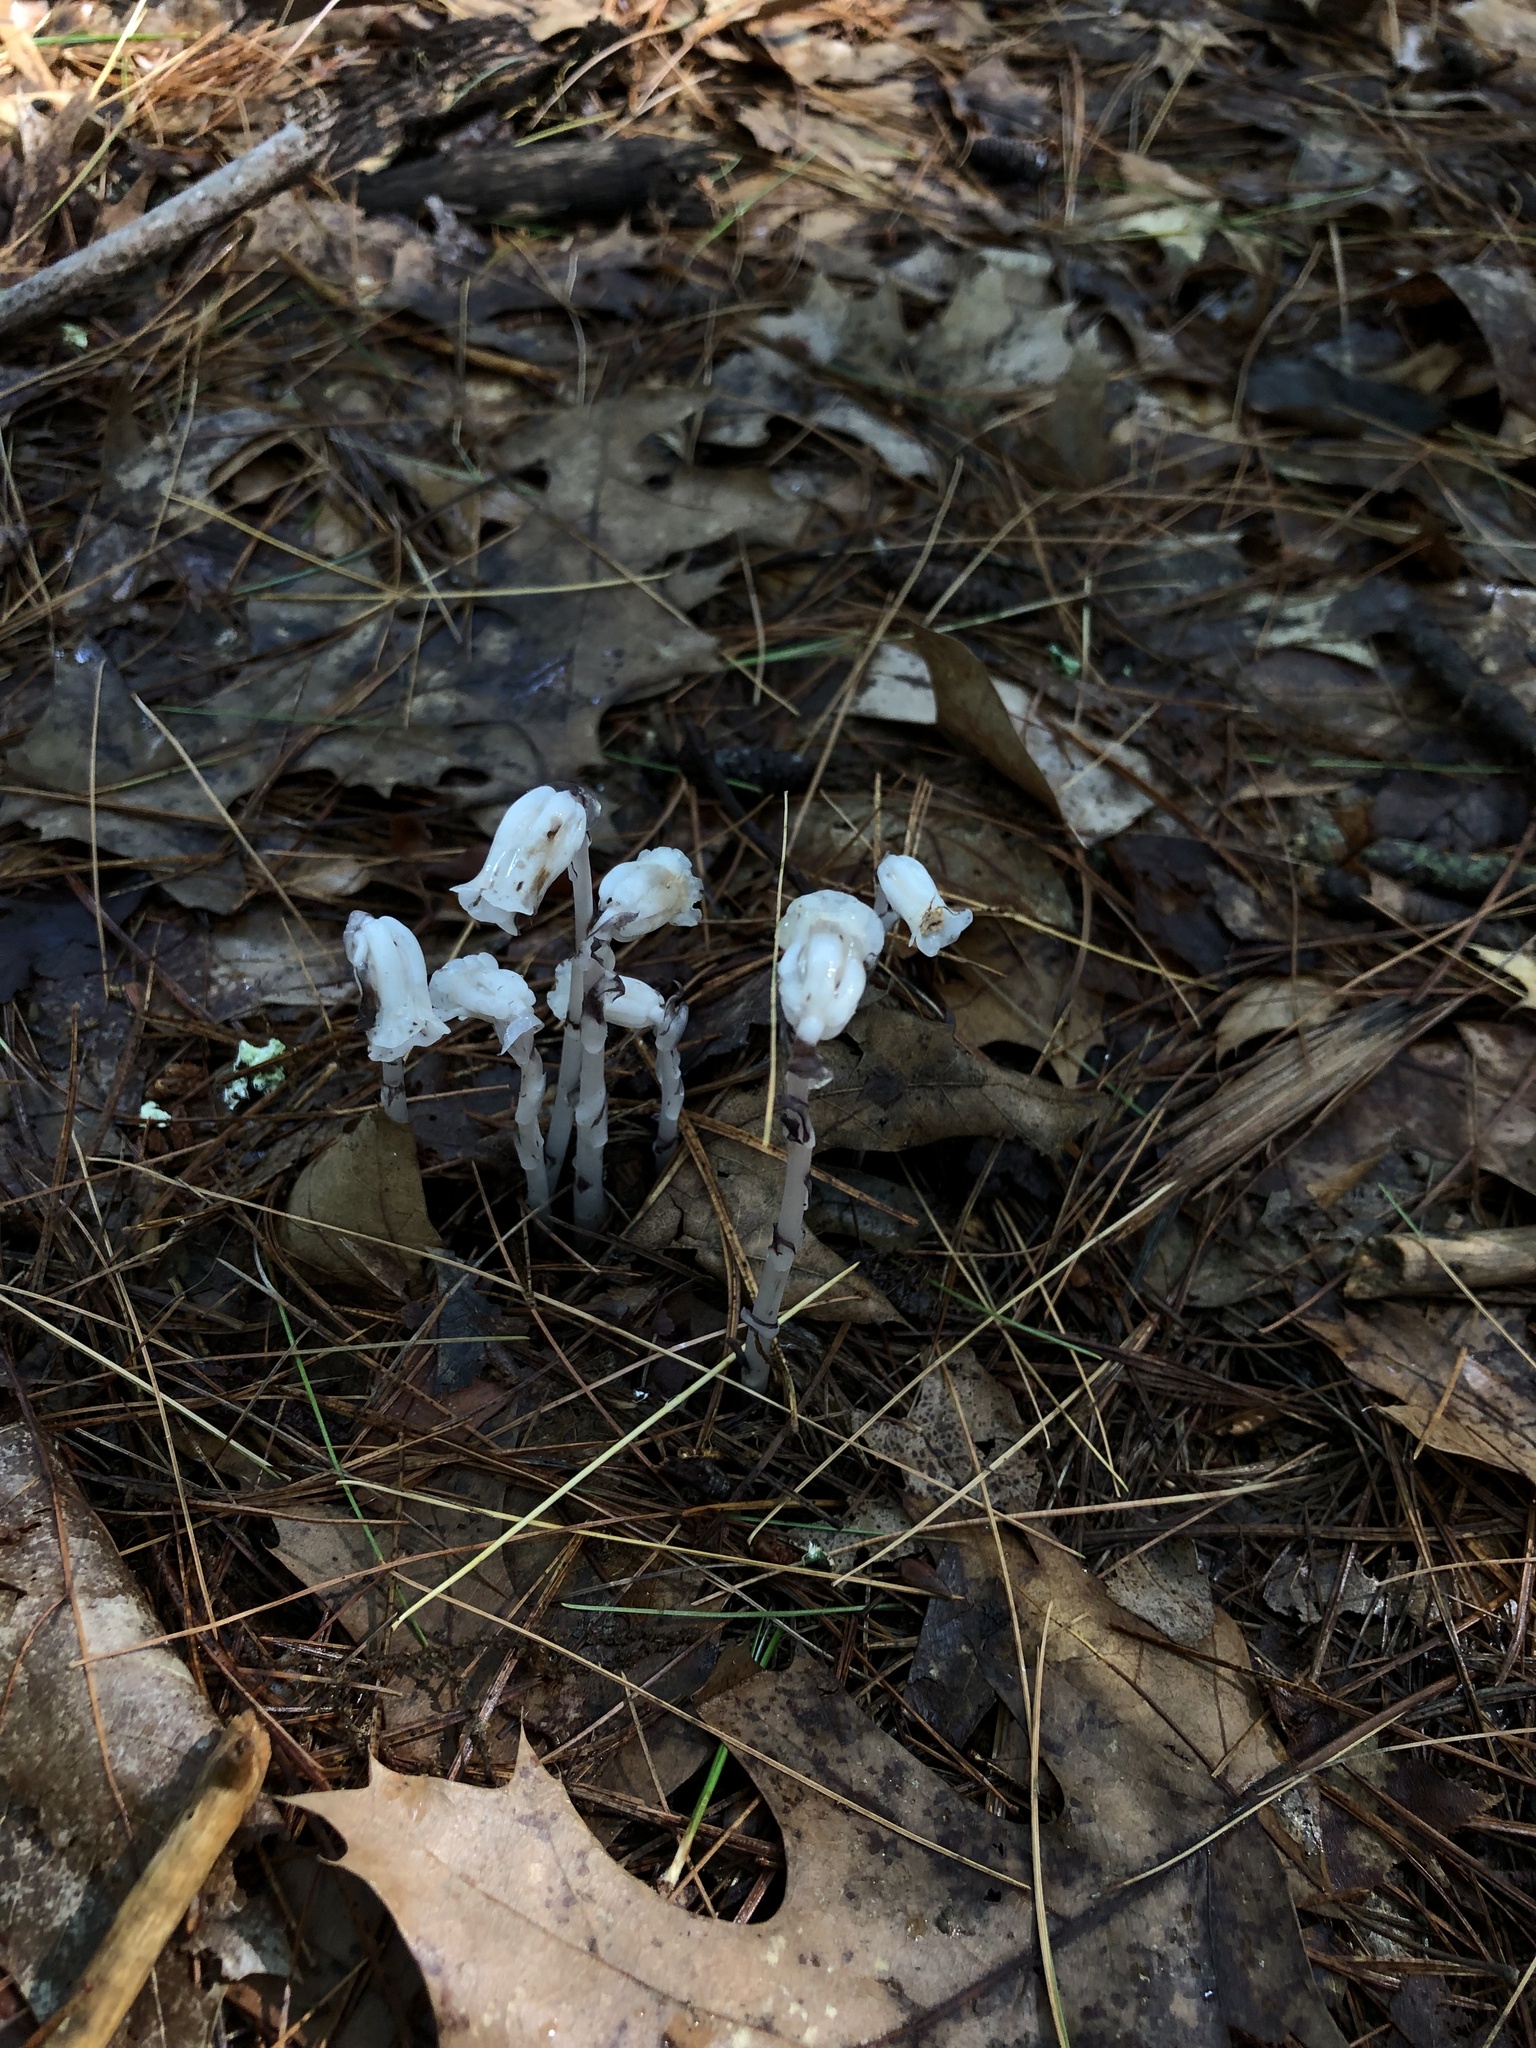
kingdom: Plantae
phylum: Tracheophyta
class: Magnoliopsida
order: Ericales
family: Ericaceae
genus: Monotropa
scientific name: Monotropa uniflora
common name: Convulsion root
